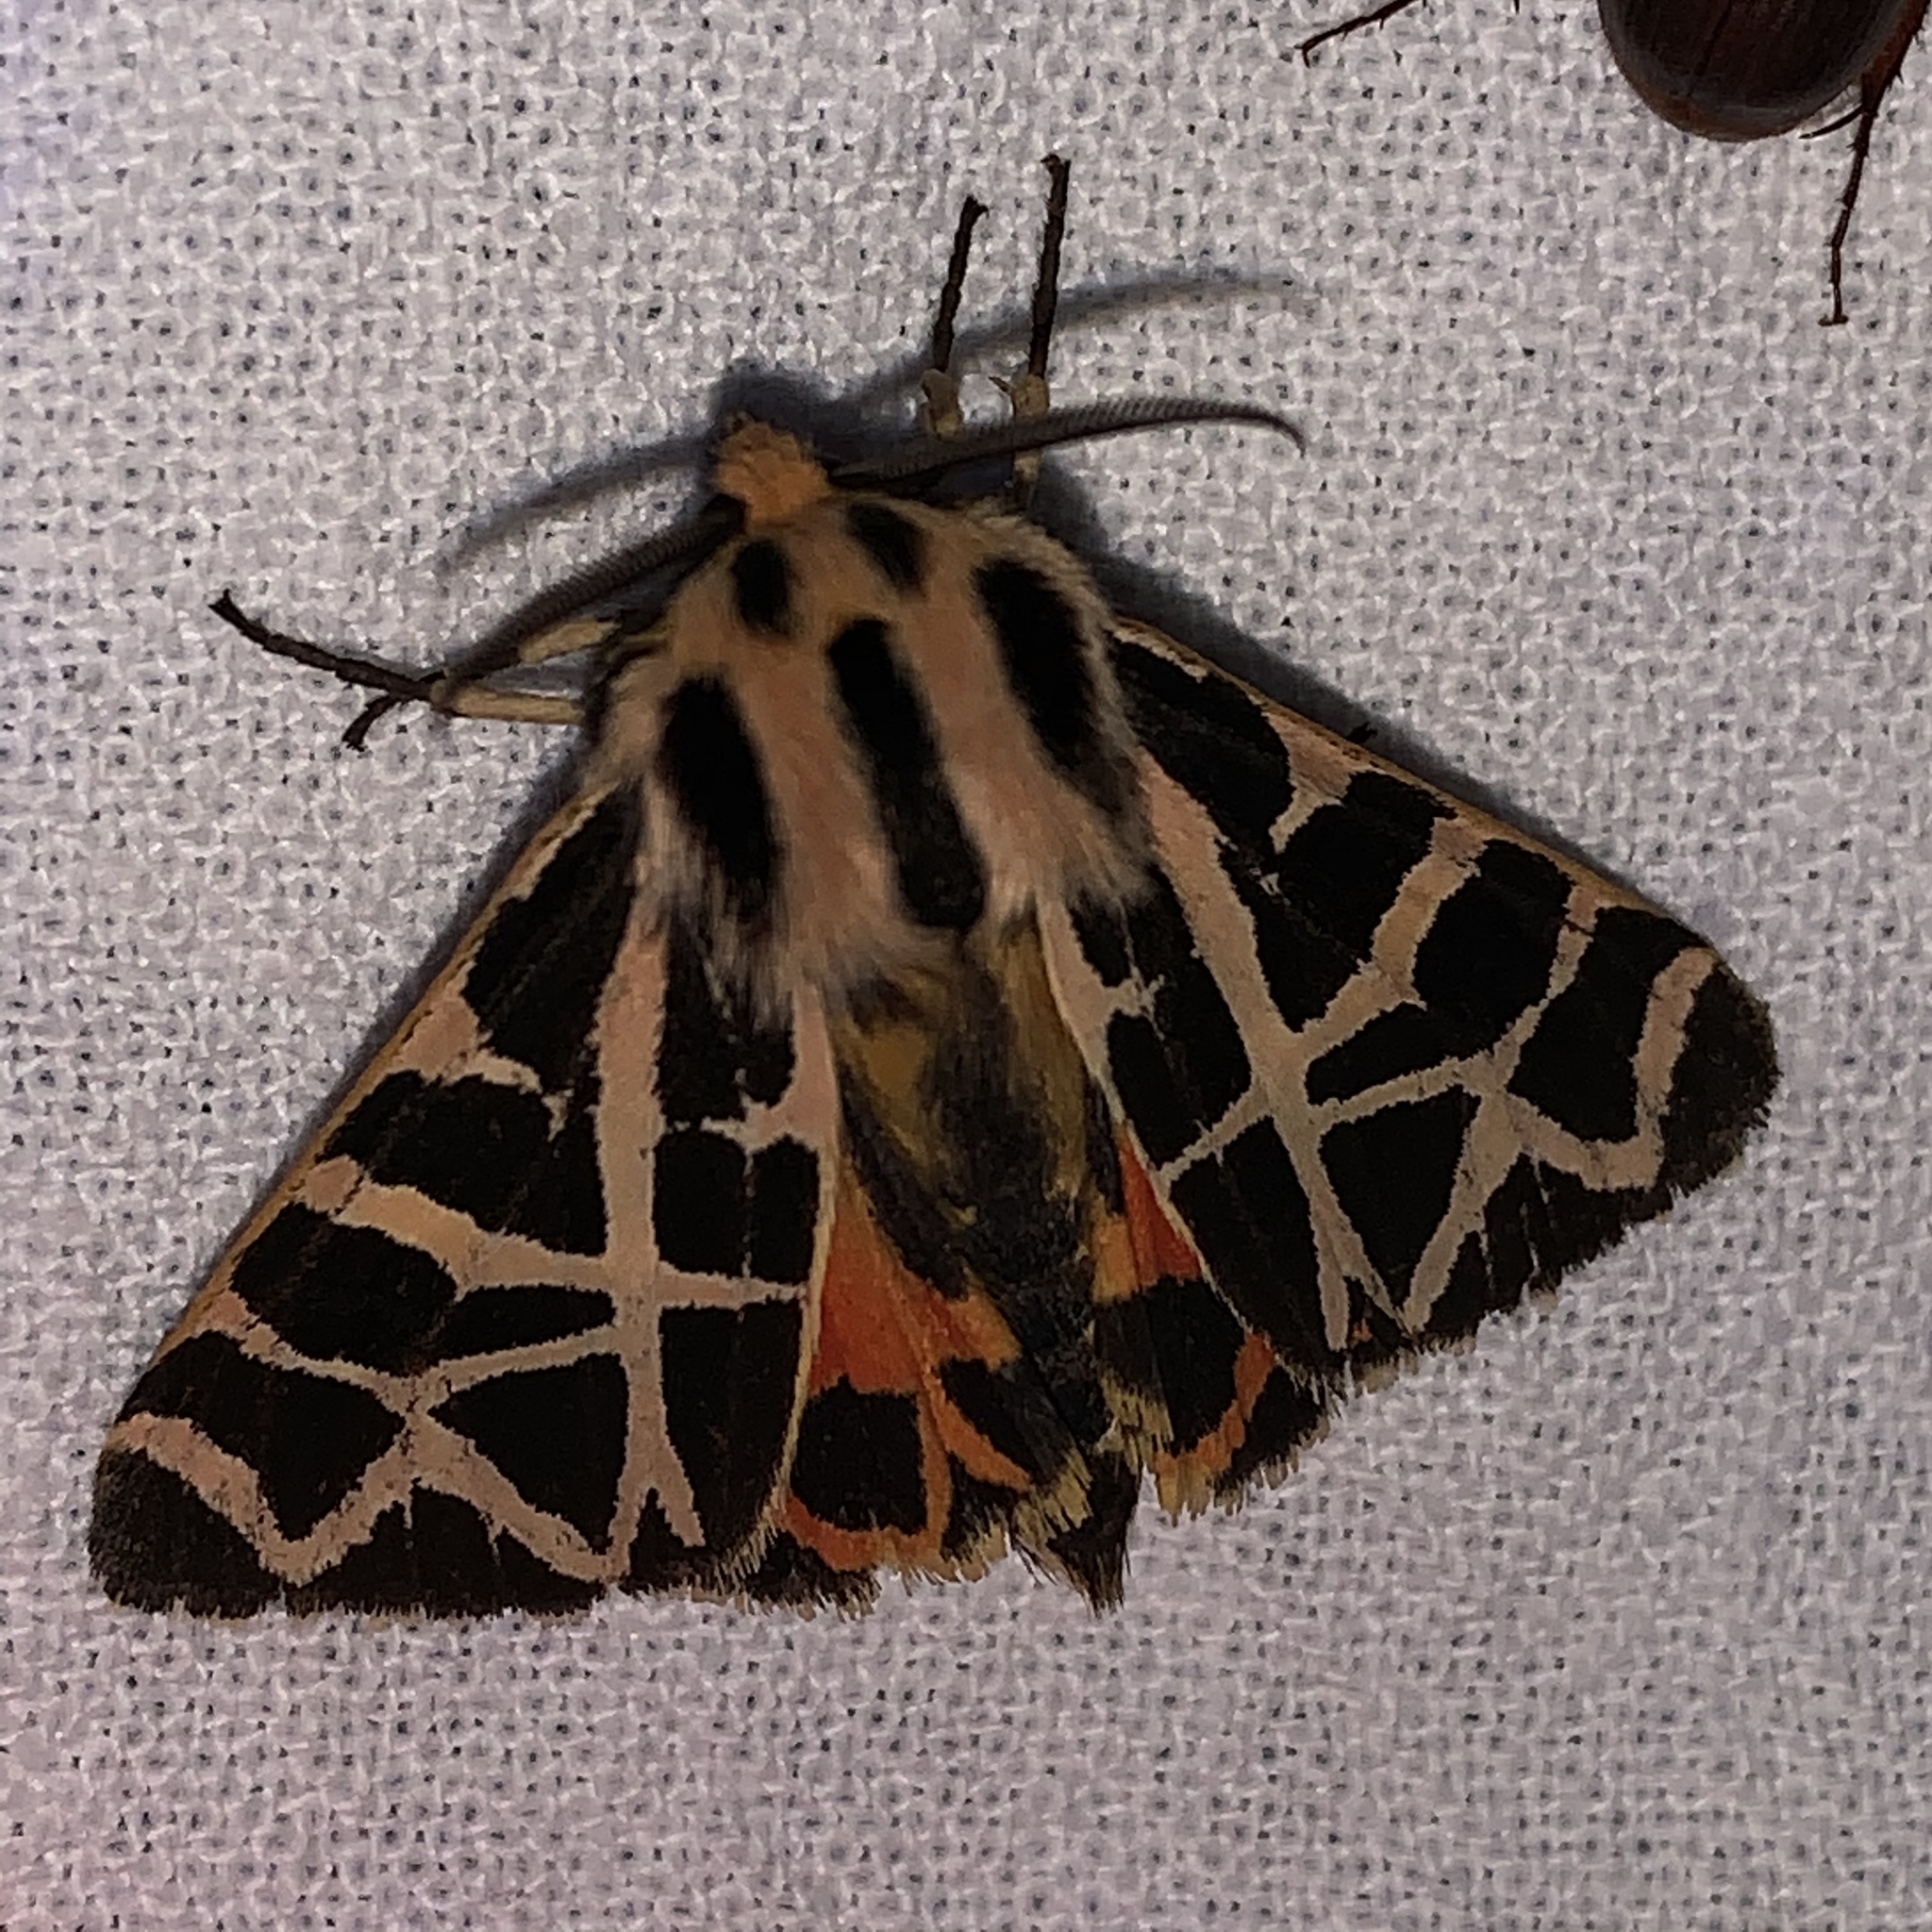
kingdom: Animalia
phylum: Arthropoda
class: Insecta
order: Lepidoptera
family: Erebidae
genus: Apantesis
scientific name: Apantesis
